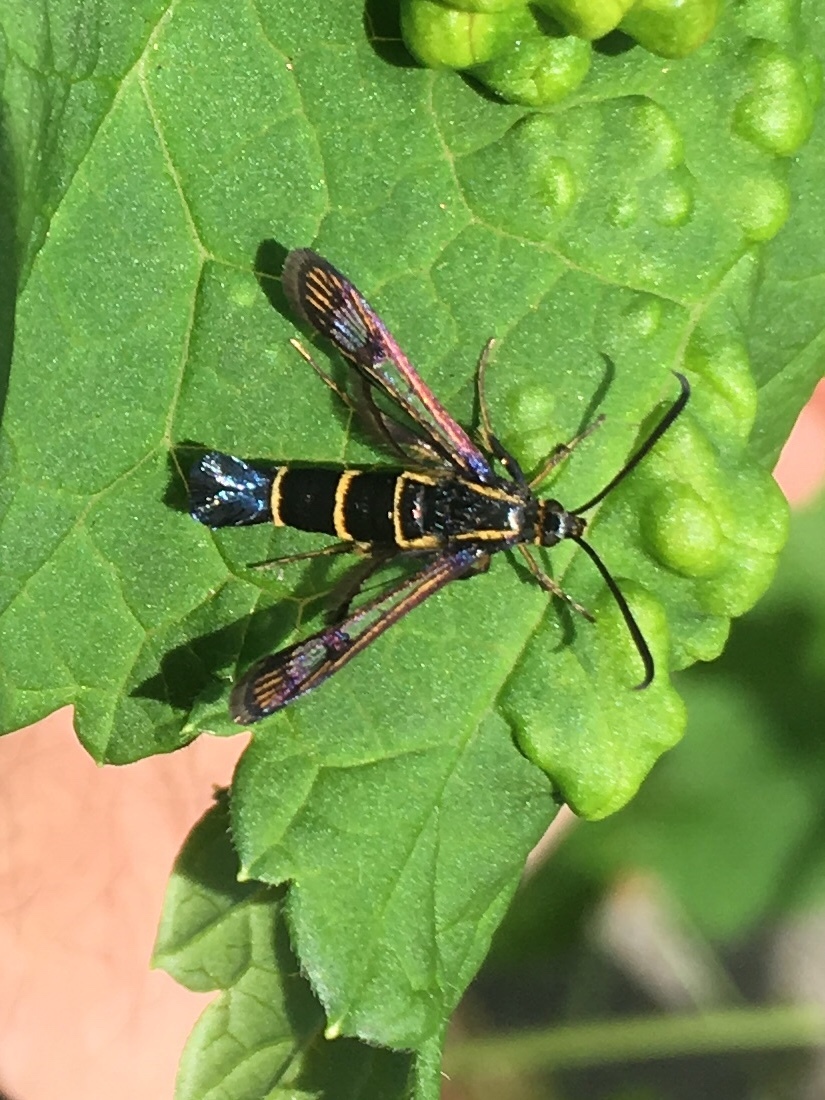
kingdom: Animalia
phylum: Arthropoda
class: Insecta
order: Lepidoptera
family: Sesiidae
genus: Synanthedon
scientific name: Synanthedon tipuliformis
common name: Currant clearwing
